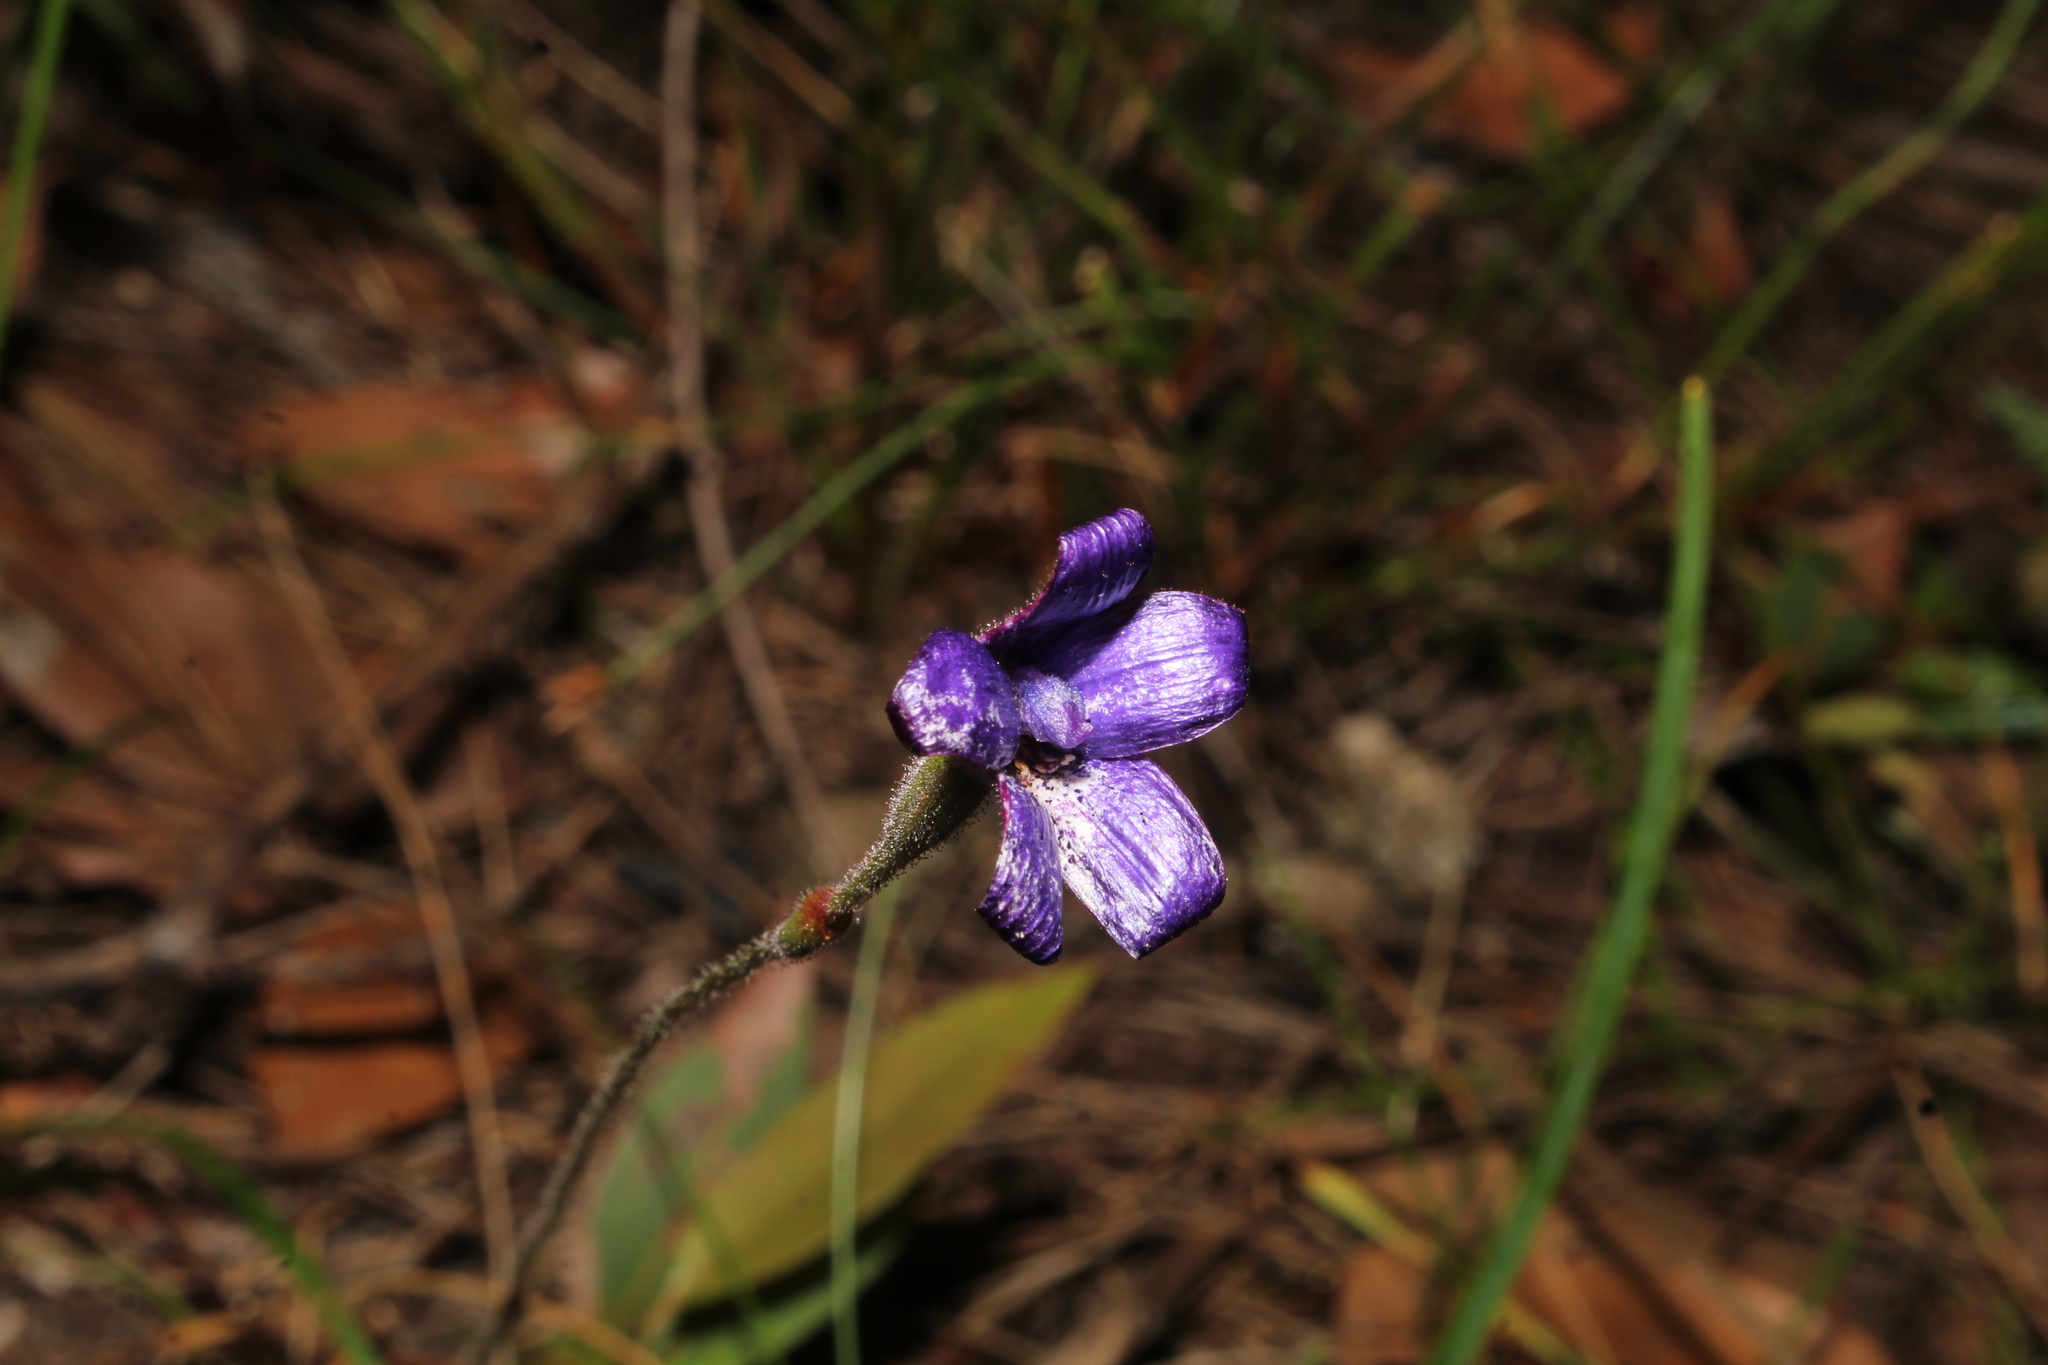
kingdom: Plantae
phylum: Tracheophyta
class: Liliopsida
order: Asparagales
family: Orchidaceae
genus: Caladenia
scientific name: Caladenia brunonis
